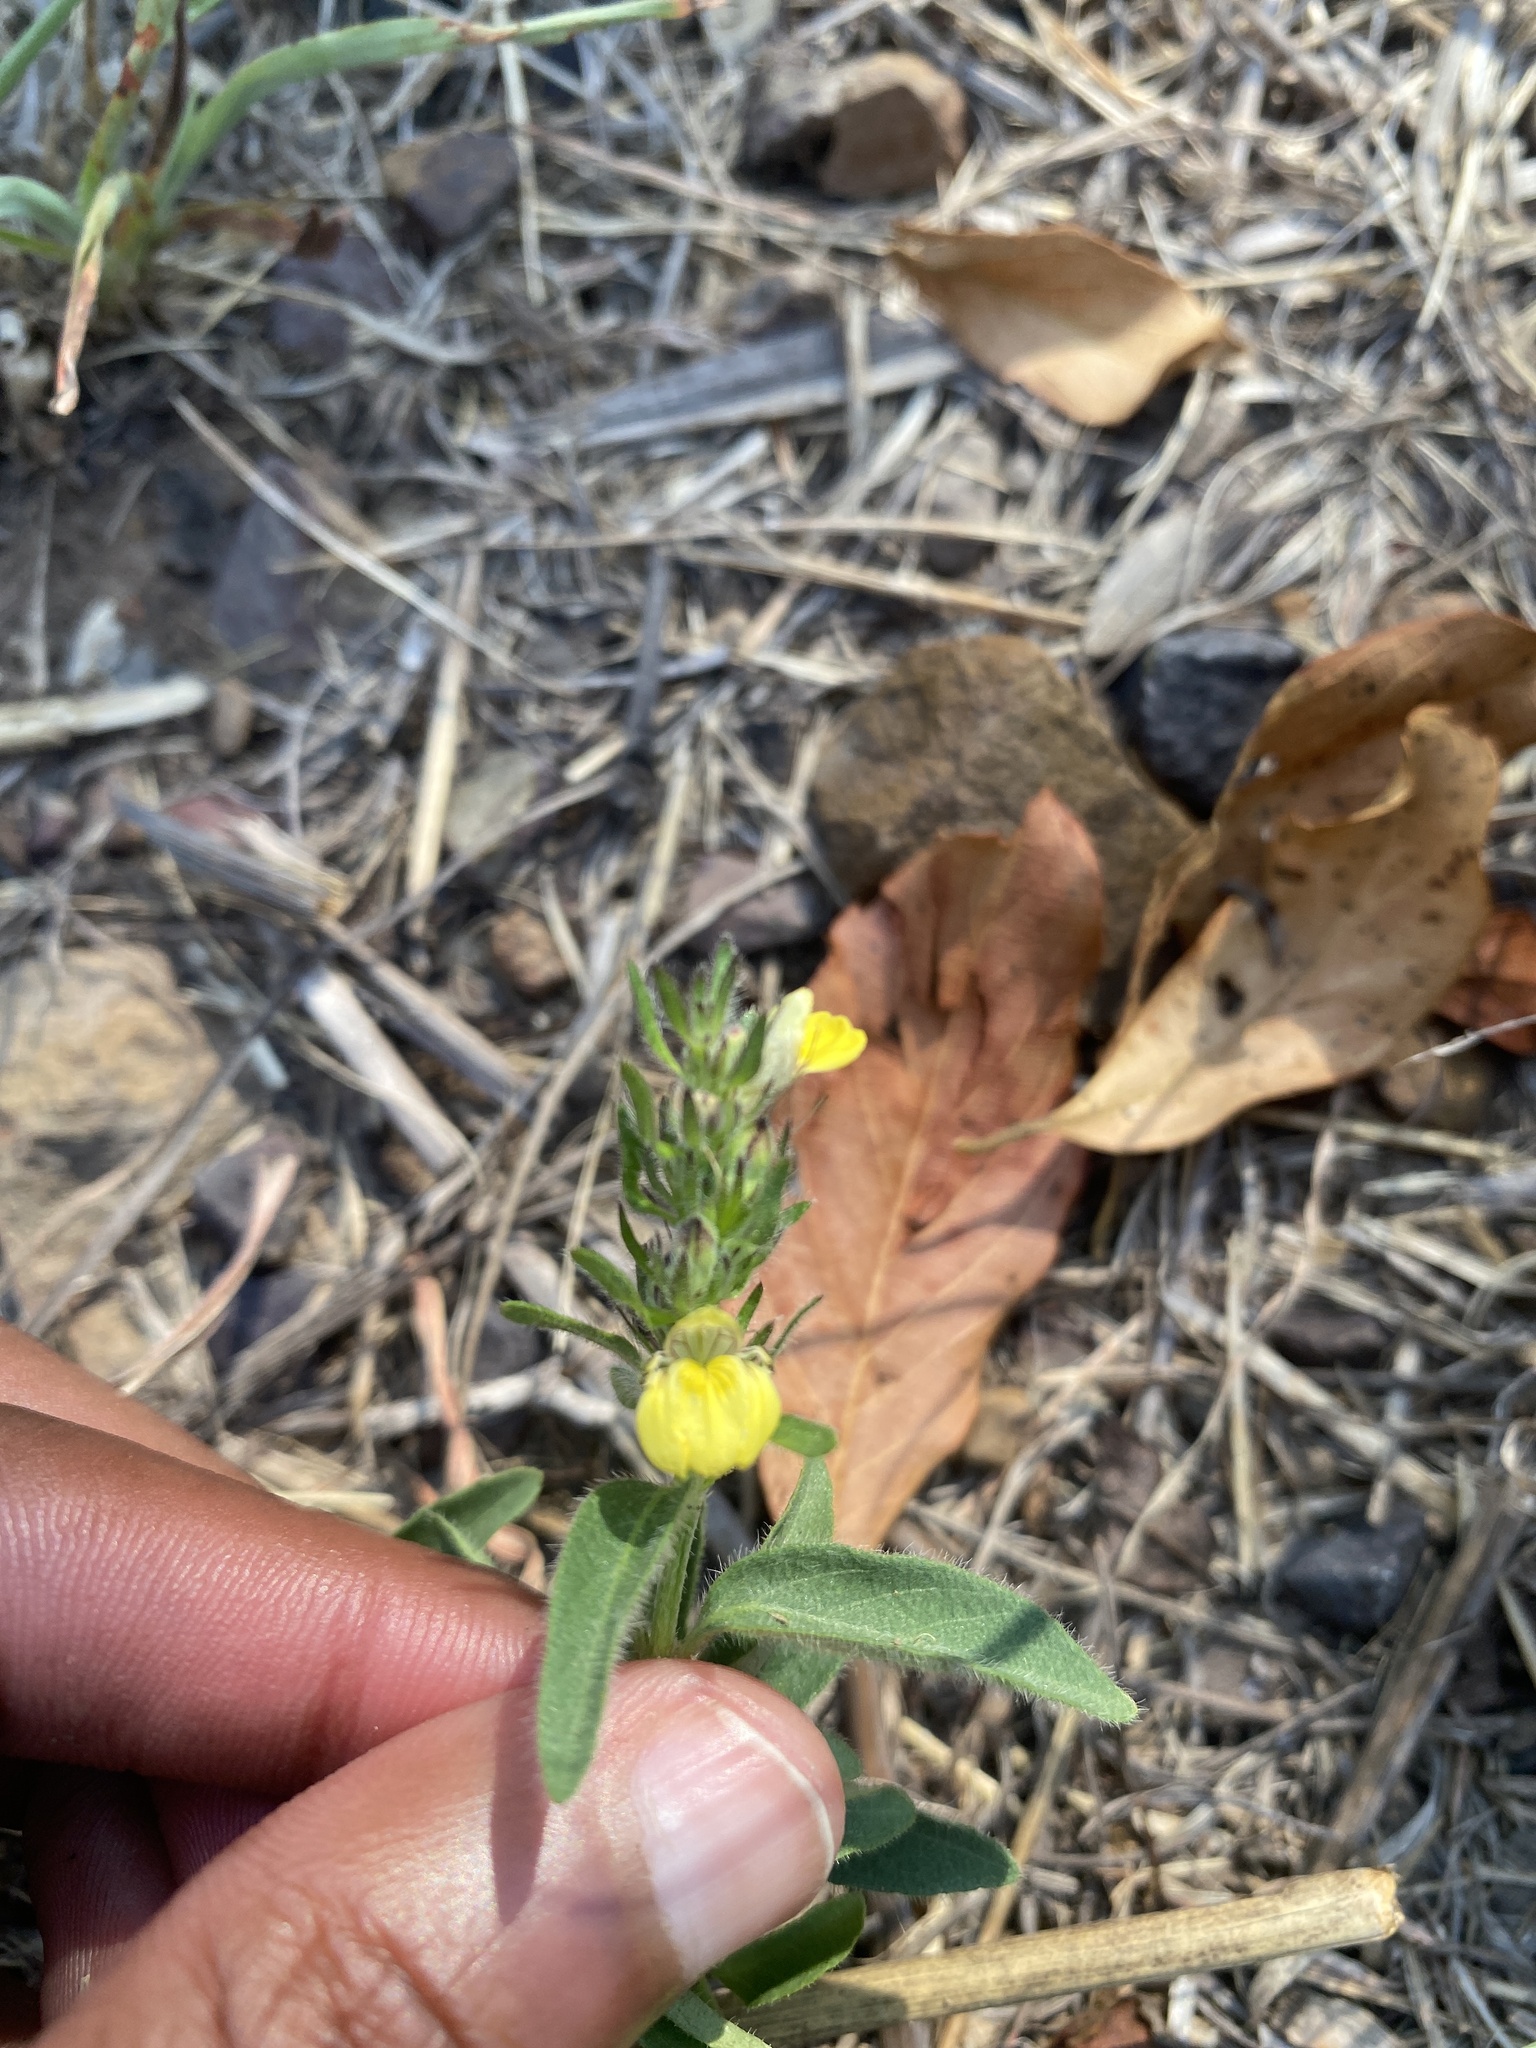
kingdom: Plantae
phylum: Tracheophyta
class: Magnoliopsida
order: Lamiales
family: Acanthaceae
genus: Justicia
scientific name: Justicia flava
